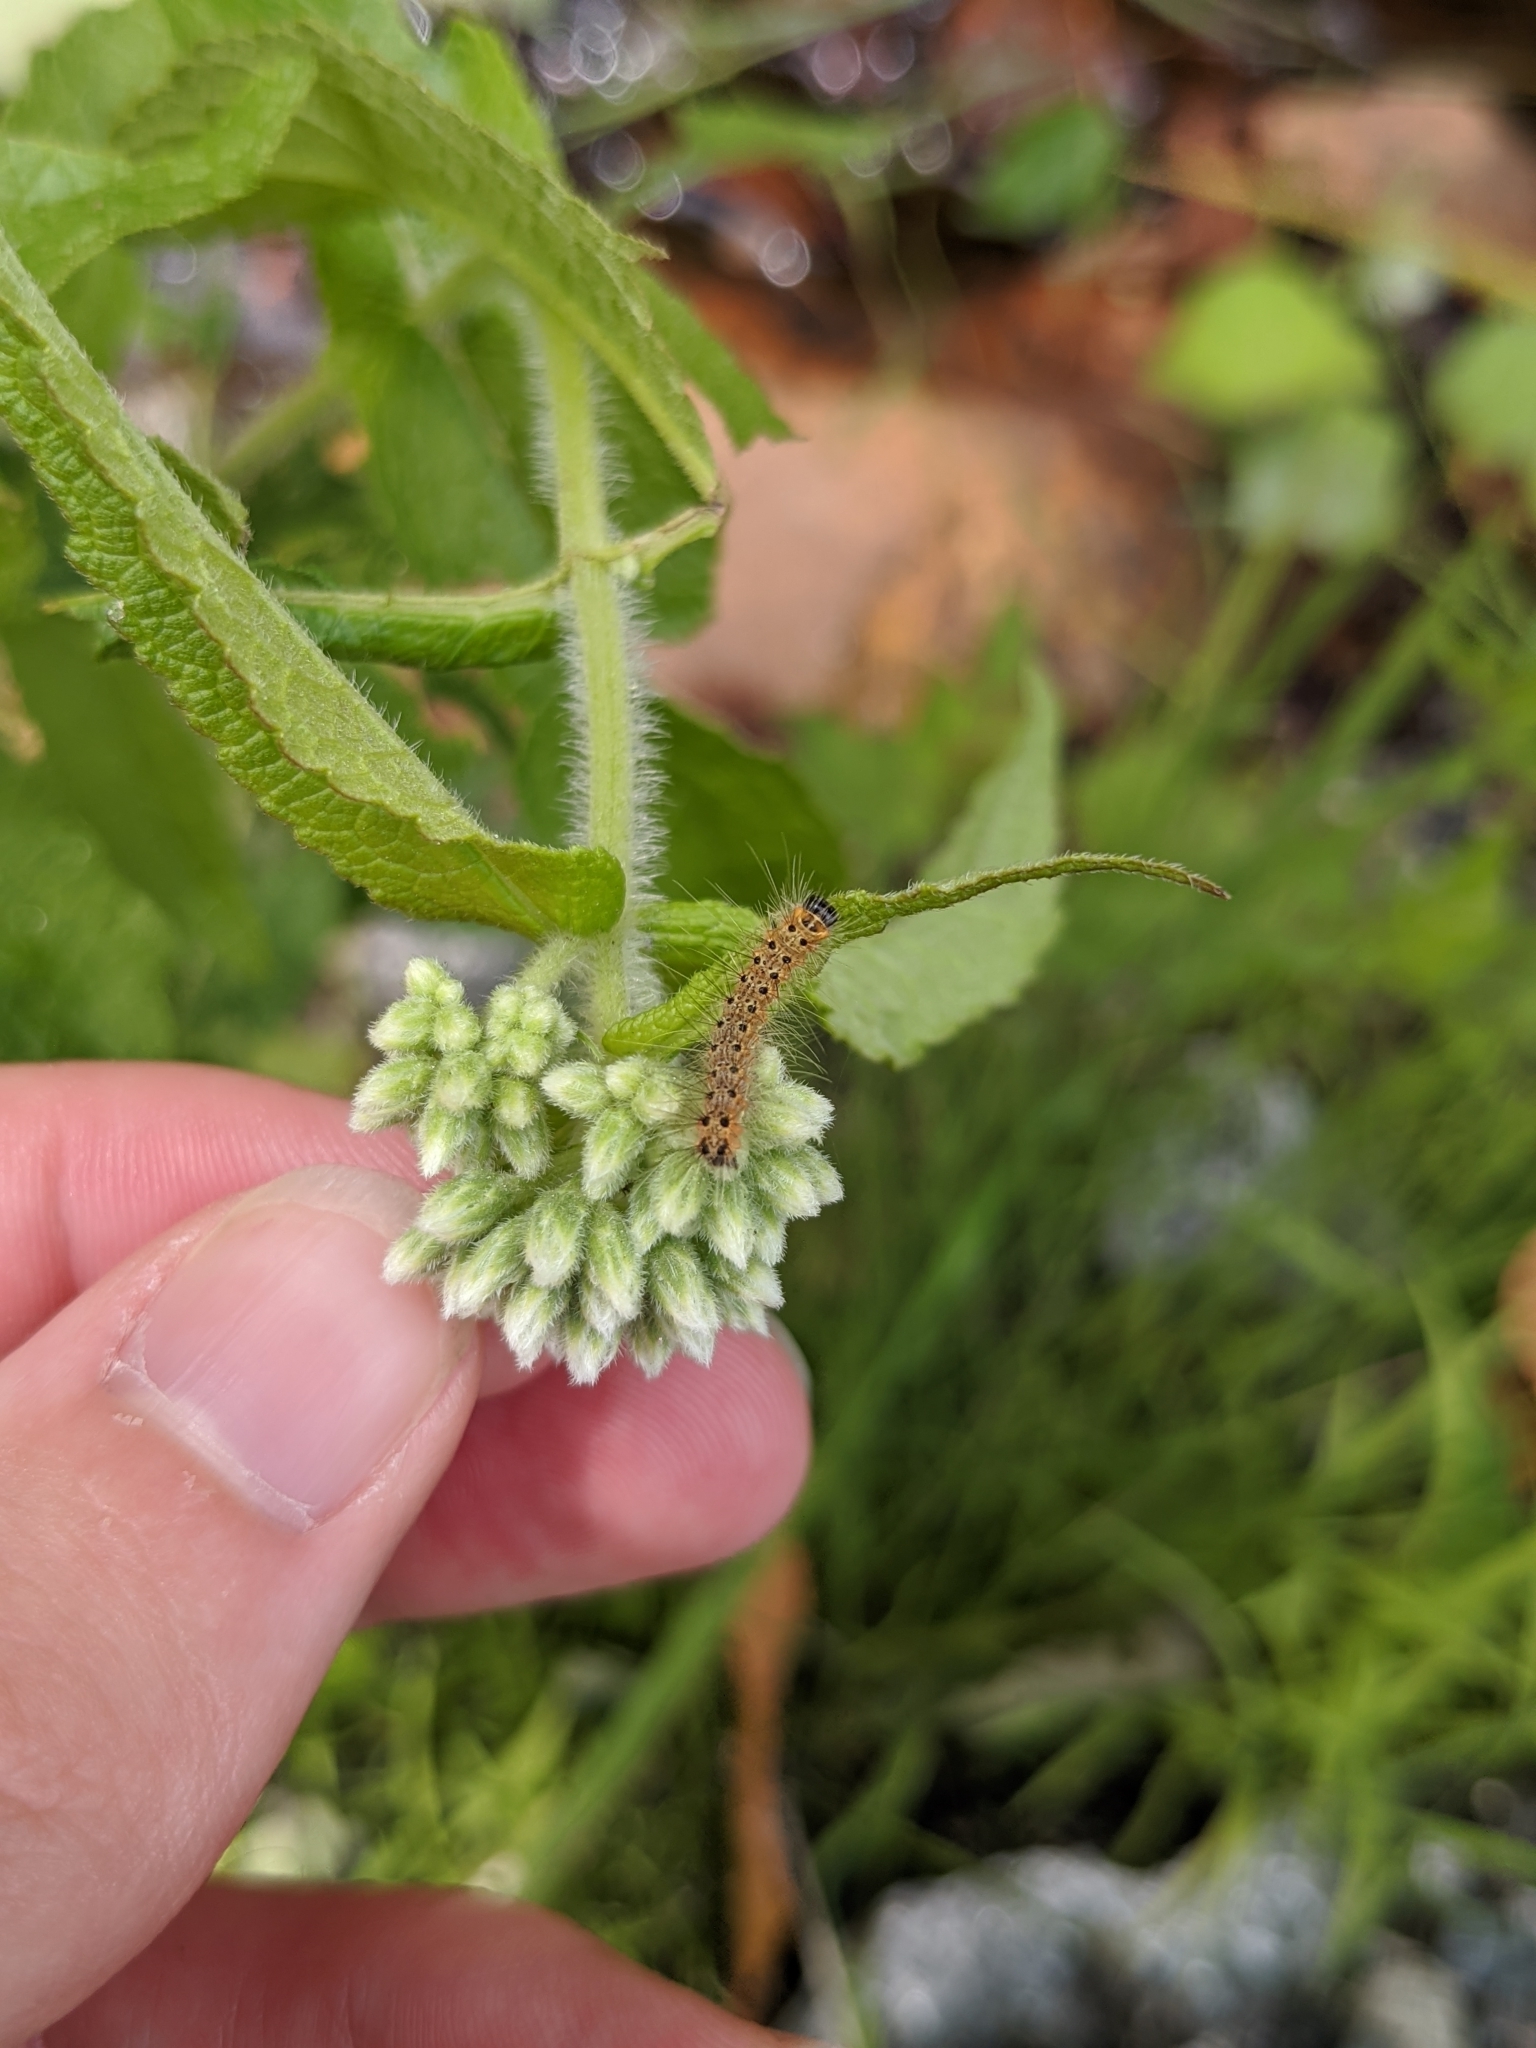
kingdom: Animalia
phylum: Arthropoda
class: Insecta
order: Lepidoptera
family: Erebidae
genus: Hyphantria
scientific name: Hyphantria cunea
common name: American white moth
